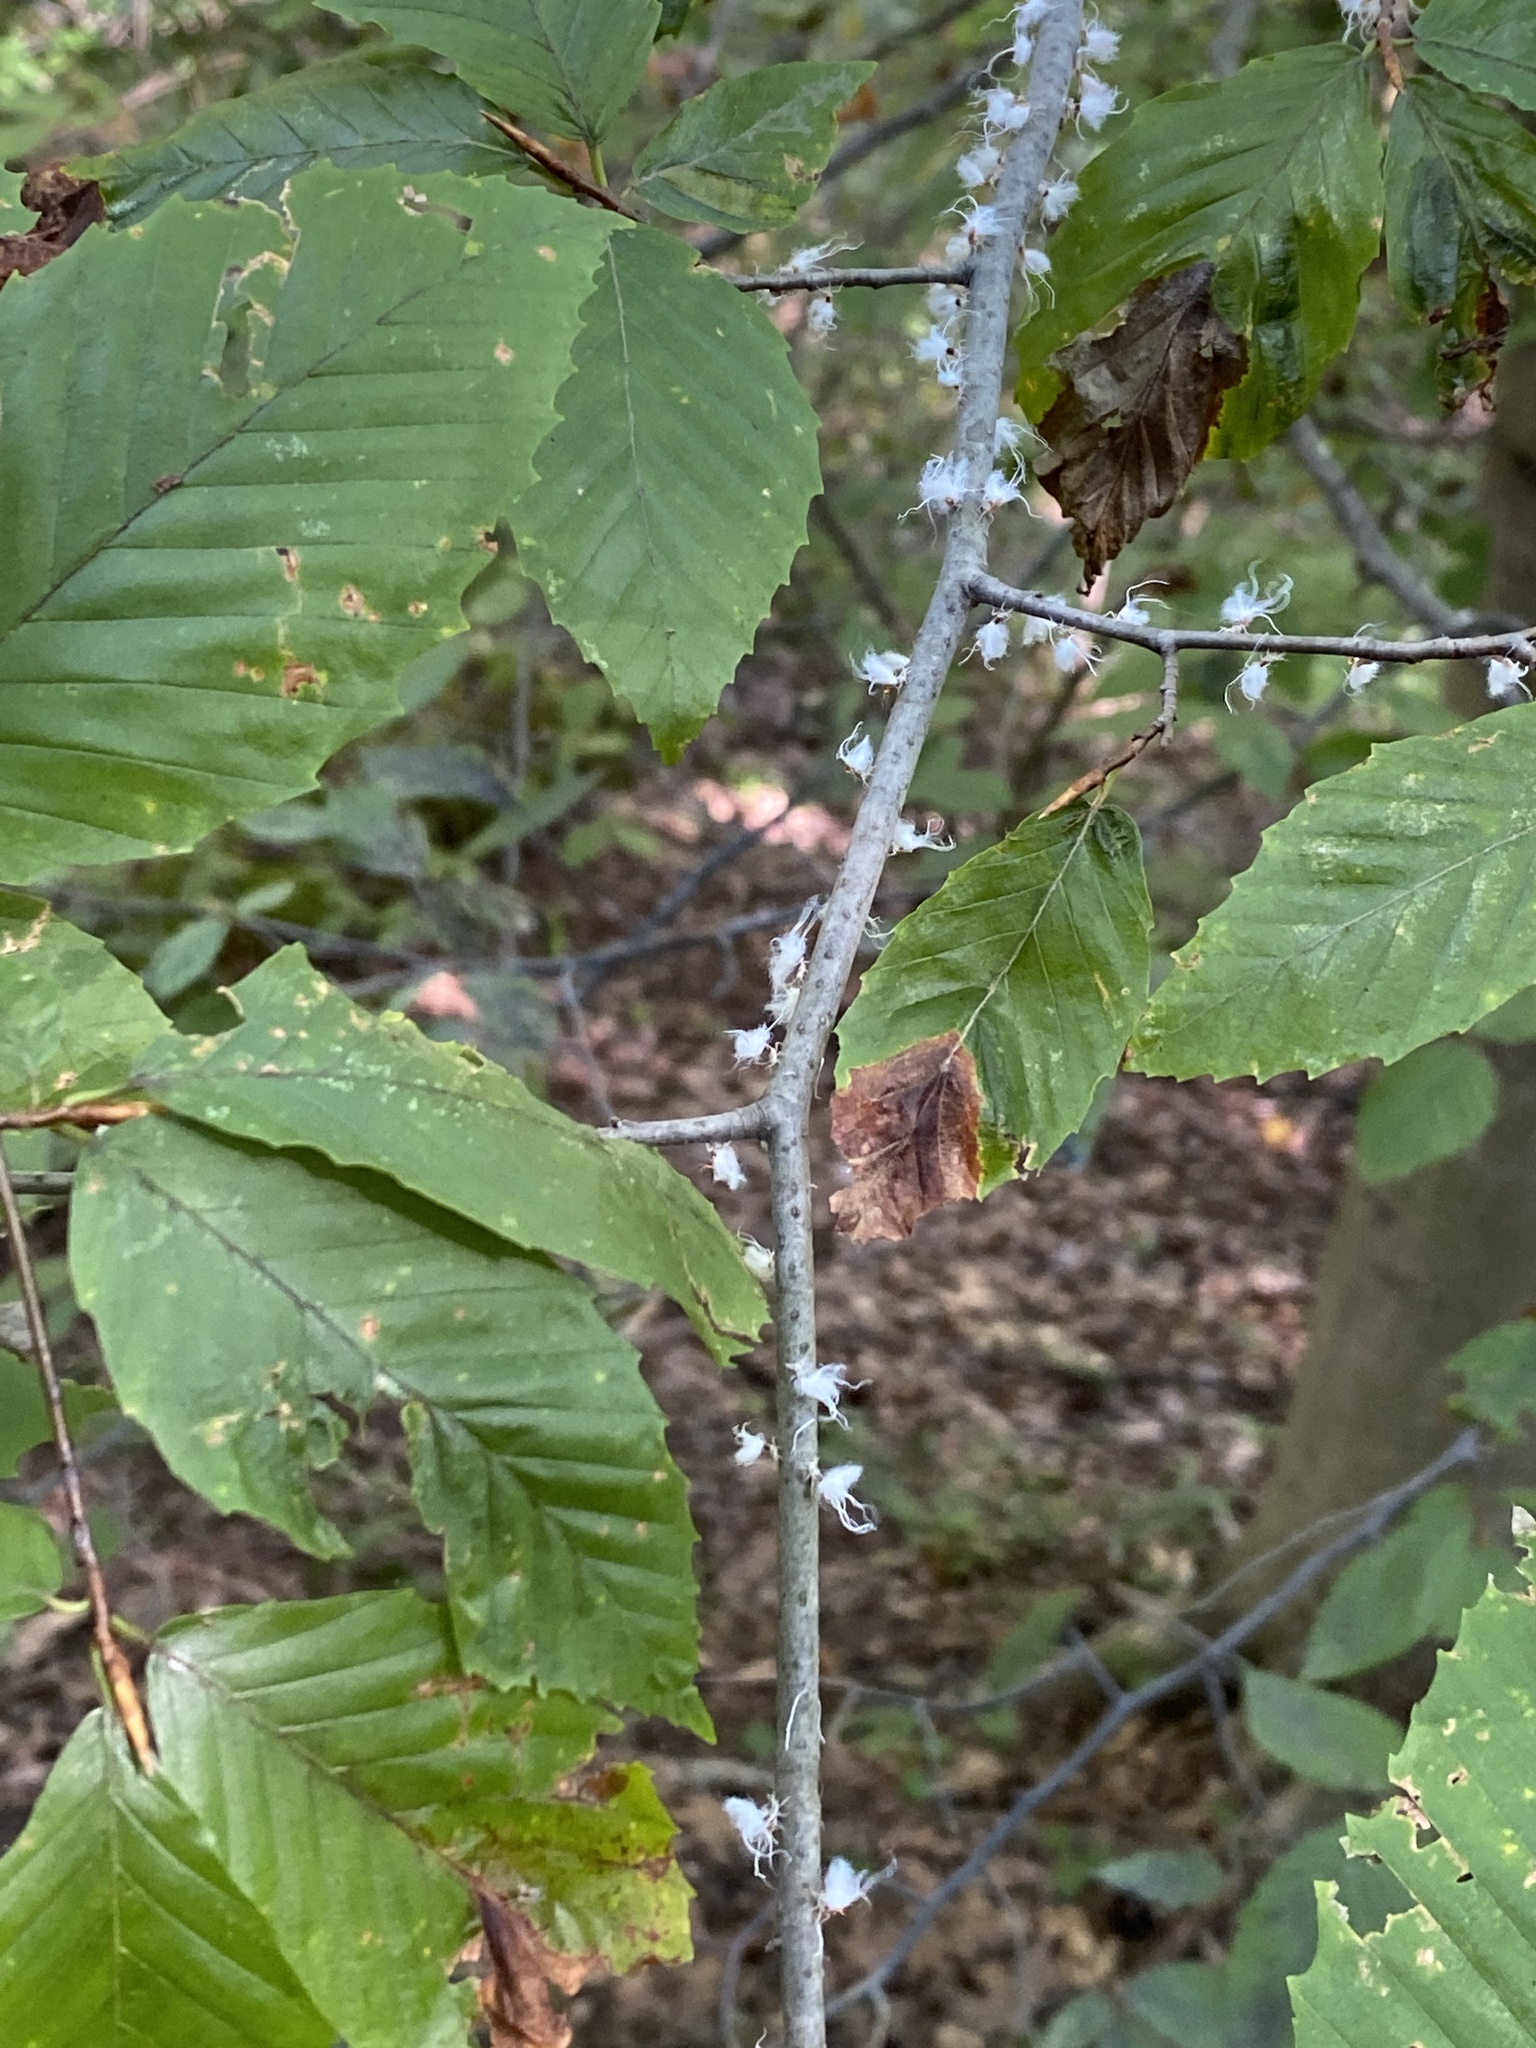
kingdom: Animalia
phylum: Arthropoda
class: Insecta
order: Hemiptera
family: Aphididae
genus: Grylloprociphilus
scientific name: Grylloprociphilus imbricator
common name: Beech blight aphid
